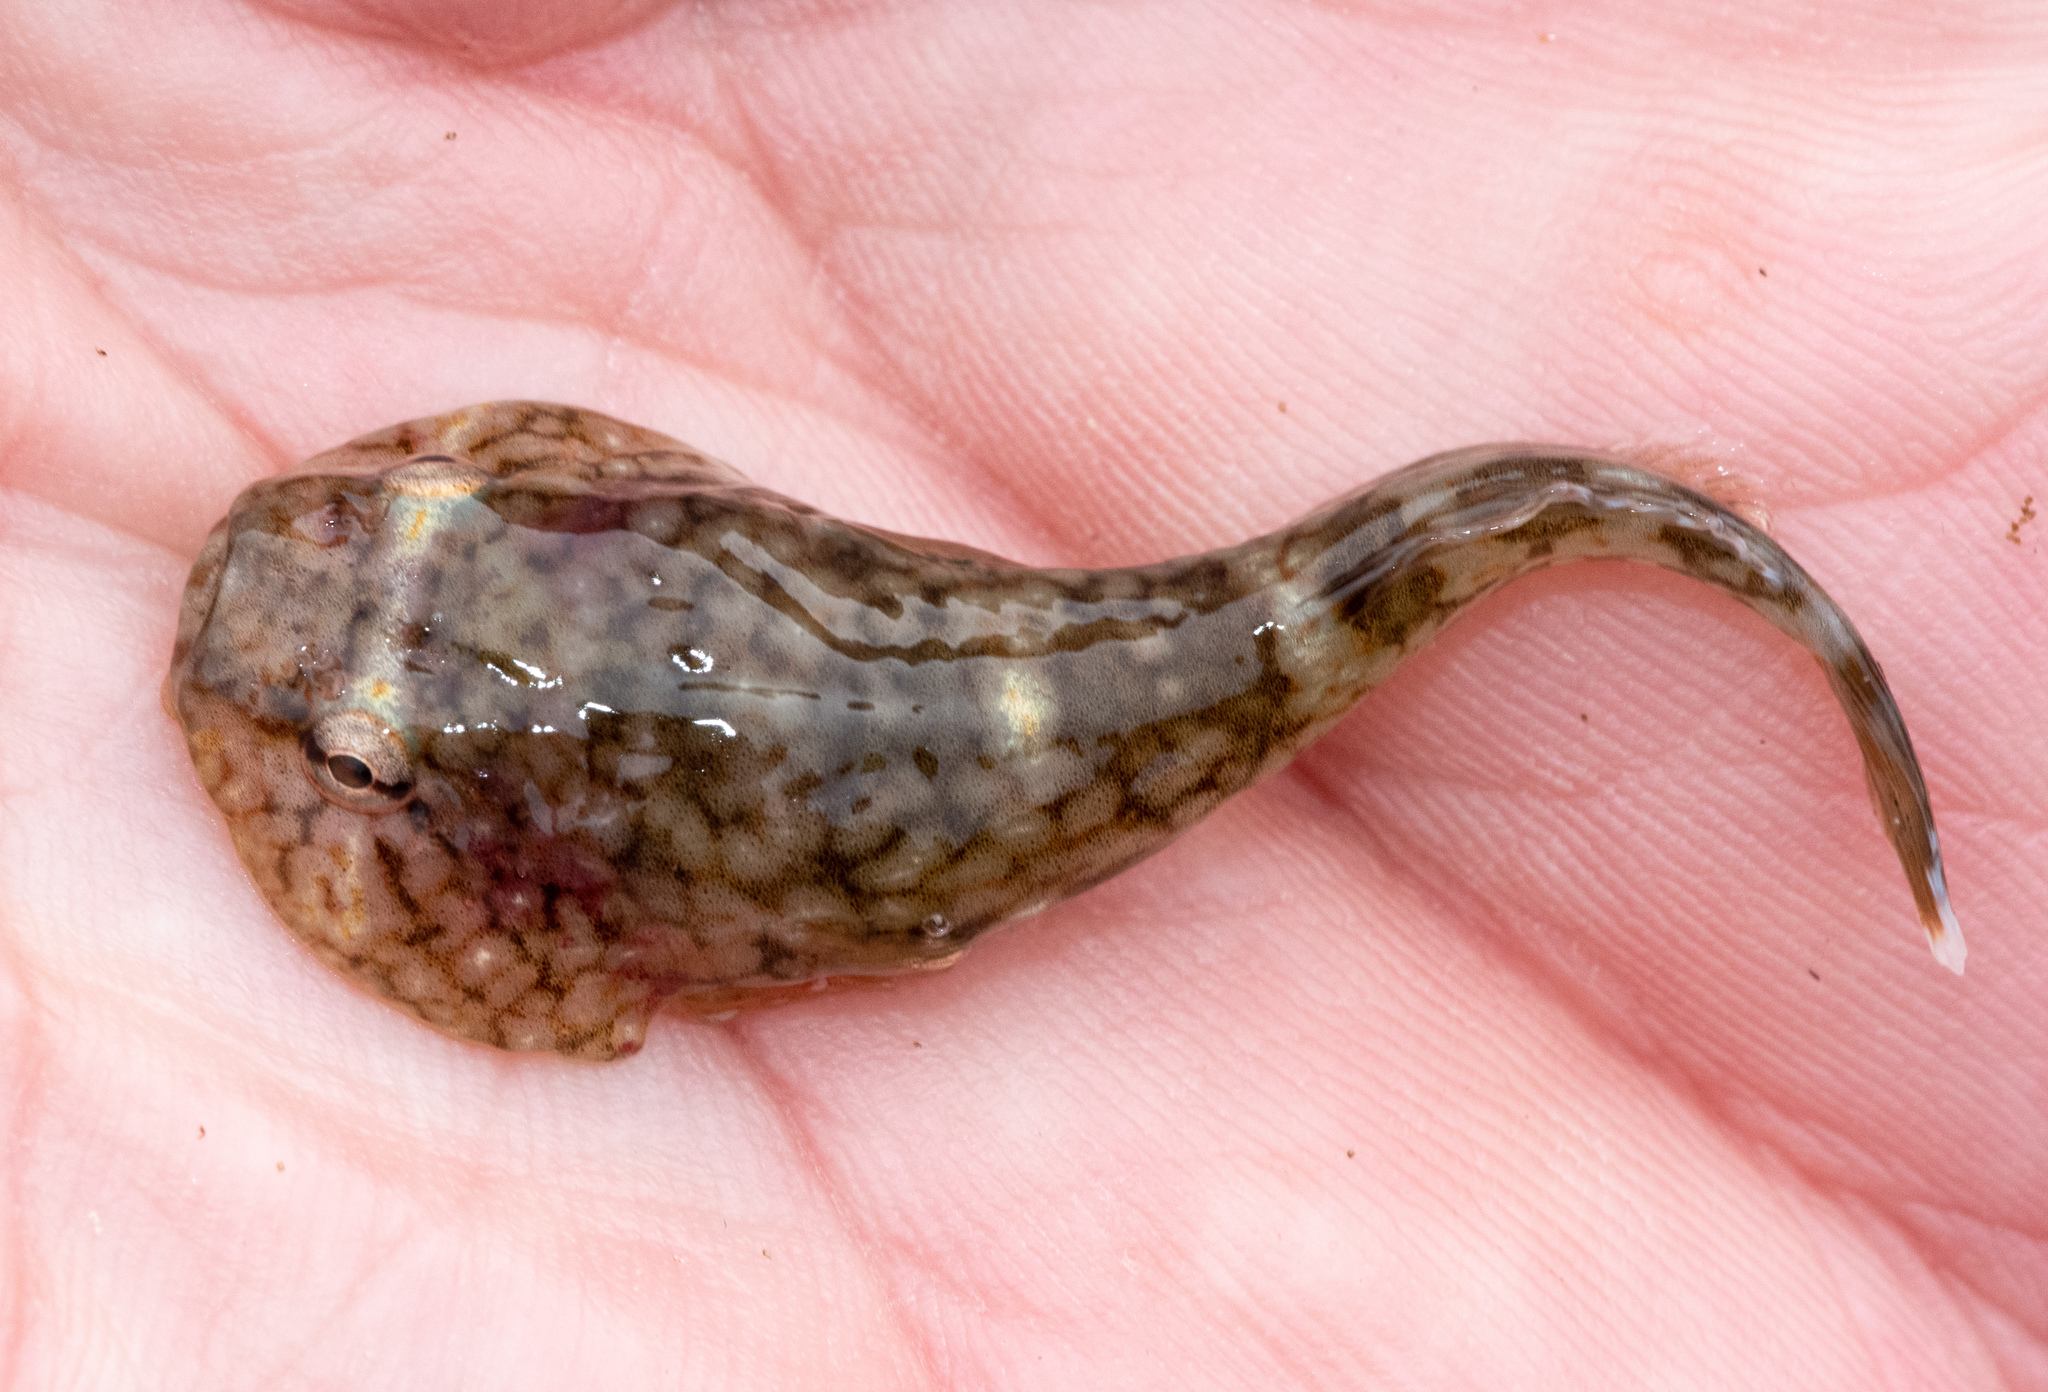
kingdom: Animalia
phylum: Chordata
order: Gobiesociformes
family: Gobiesocidae
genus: Gobiesox
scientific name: Gobiesox maeandricus
